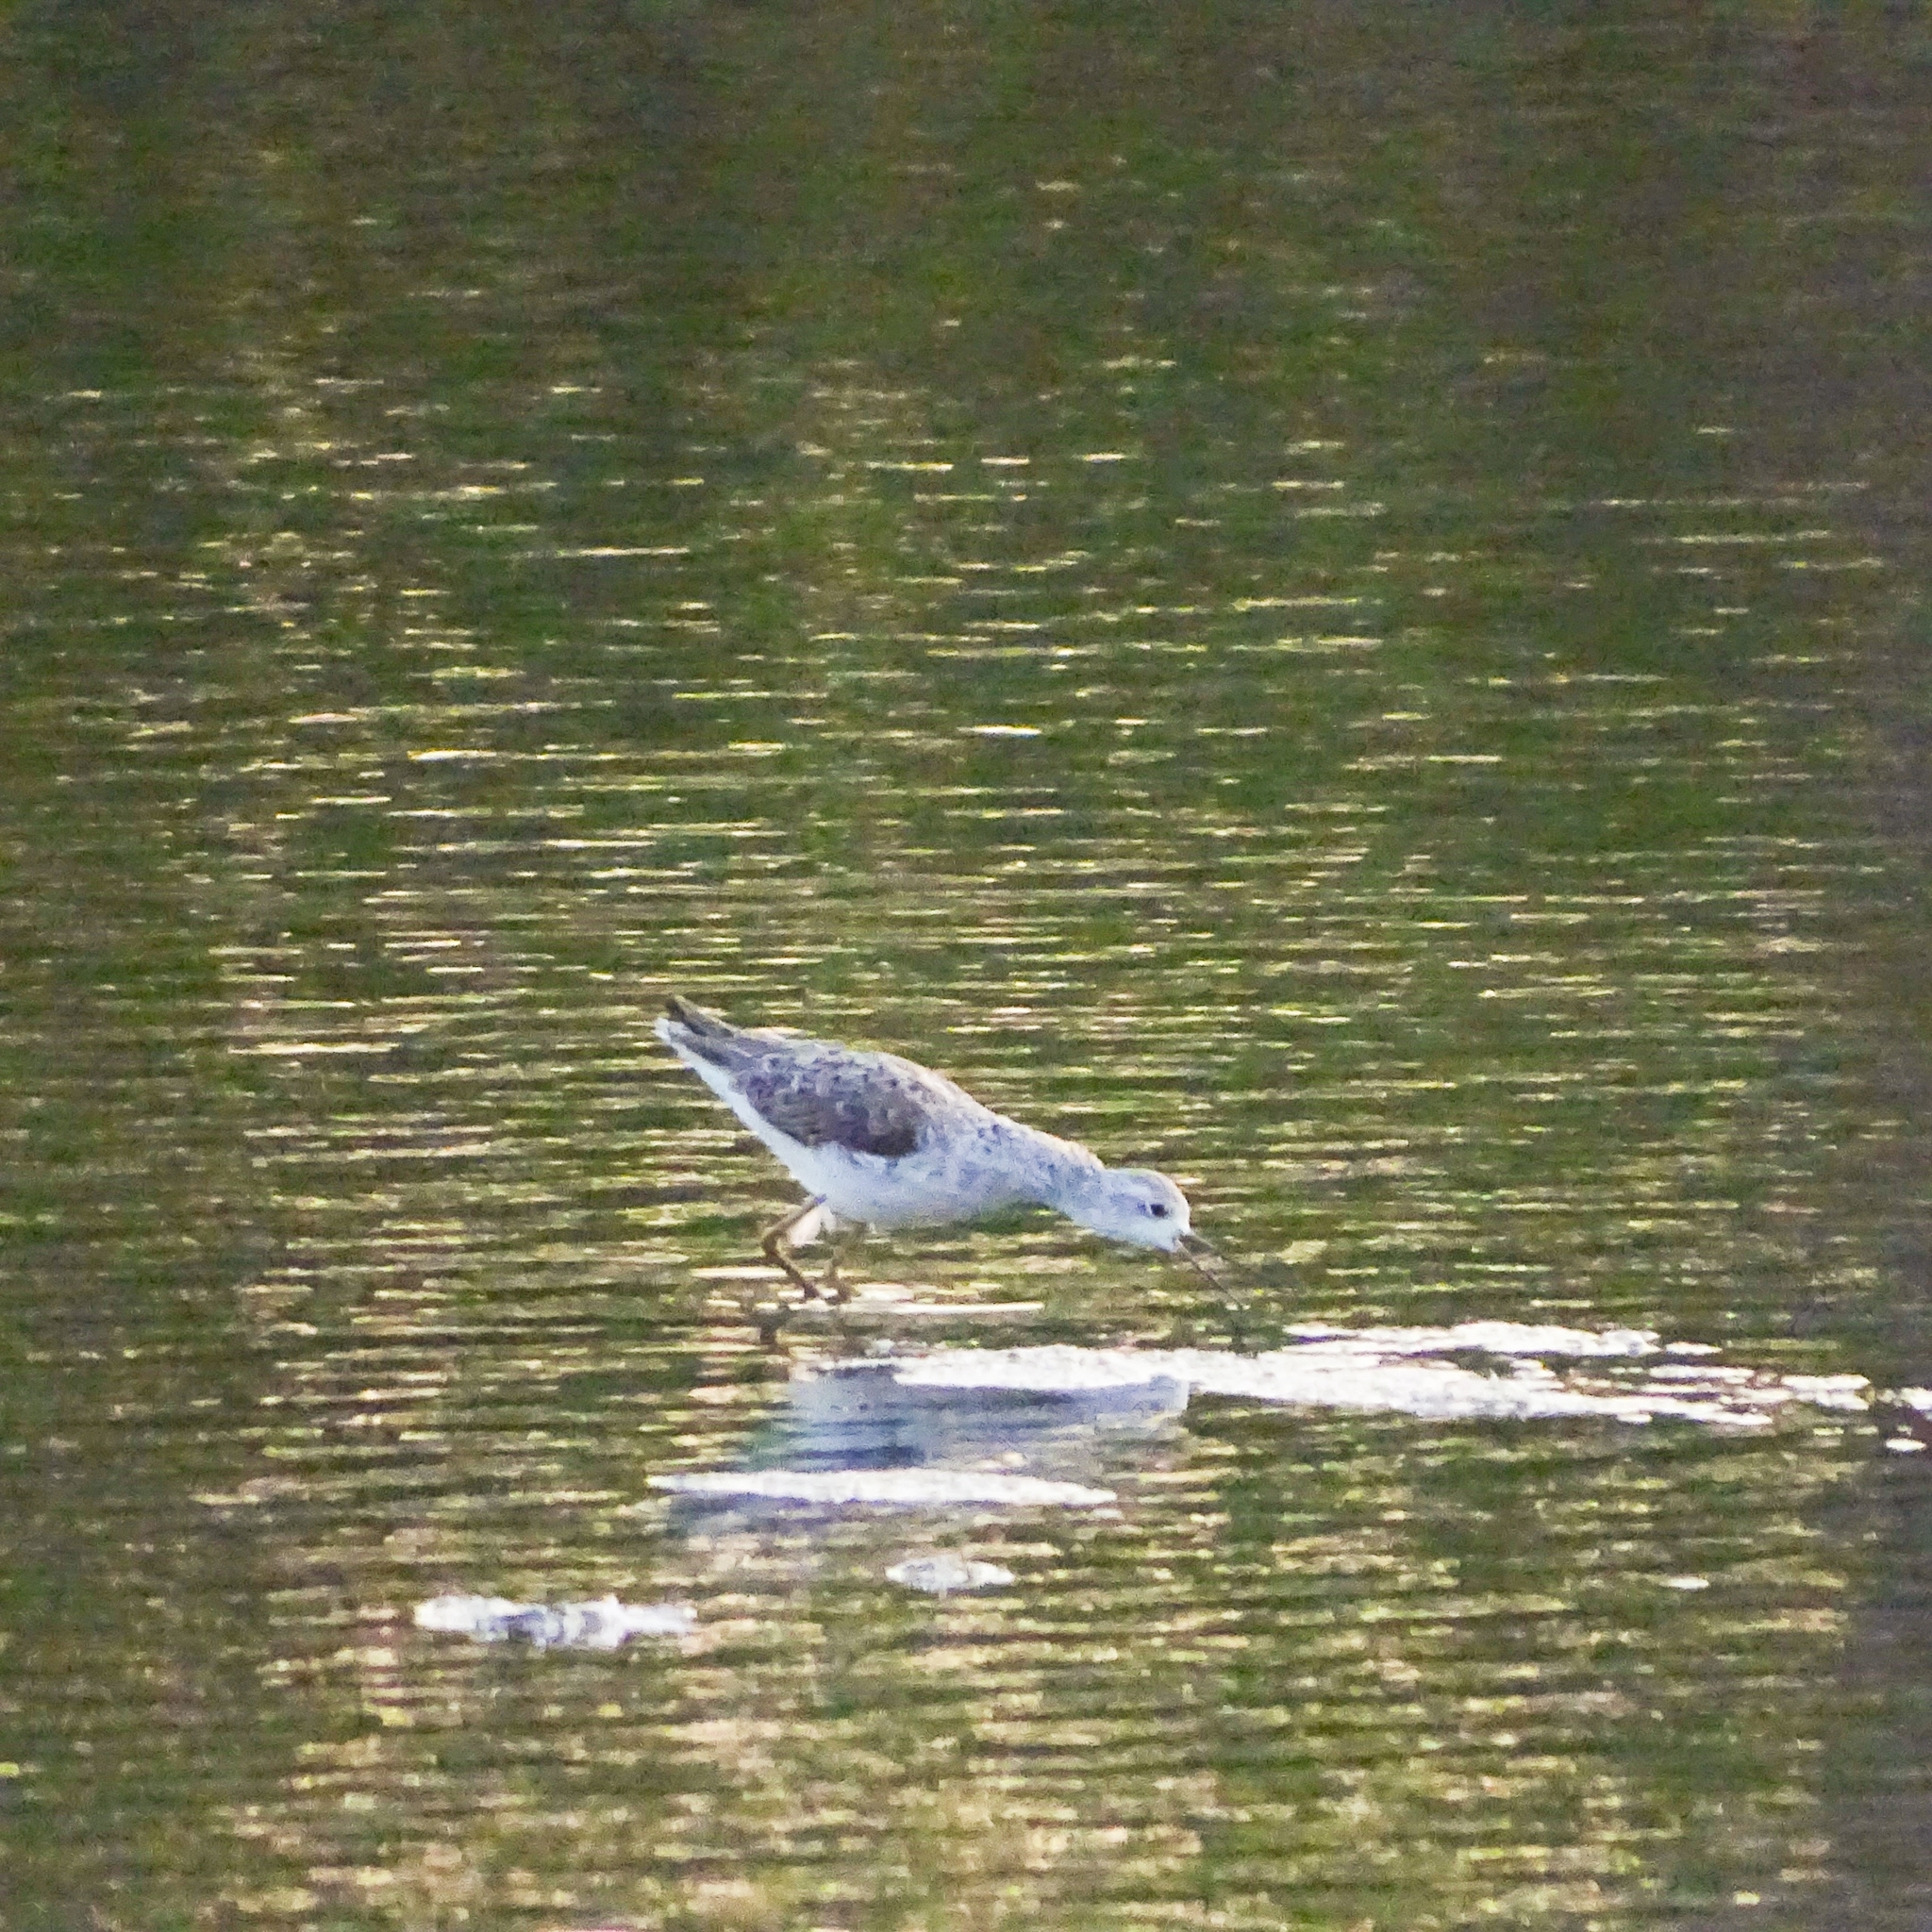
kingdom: Animalia
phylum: Chordata
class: Aves
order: Charadriiformes
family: Scolopacidae
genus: Tringa
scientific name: Tringa stagnatilis
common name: Marsh sandpiper
